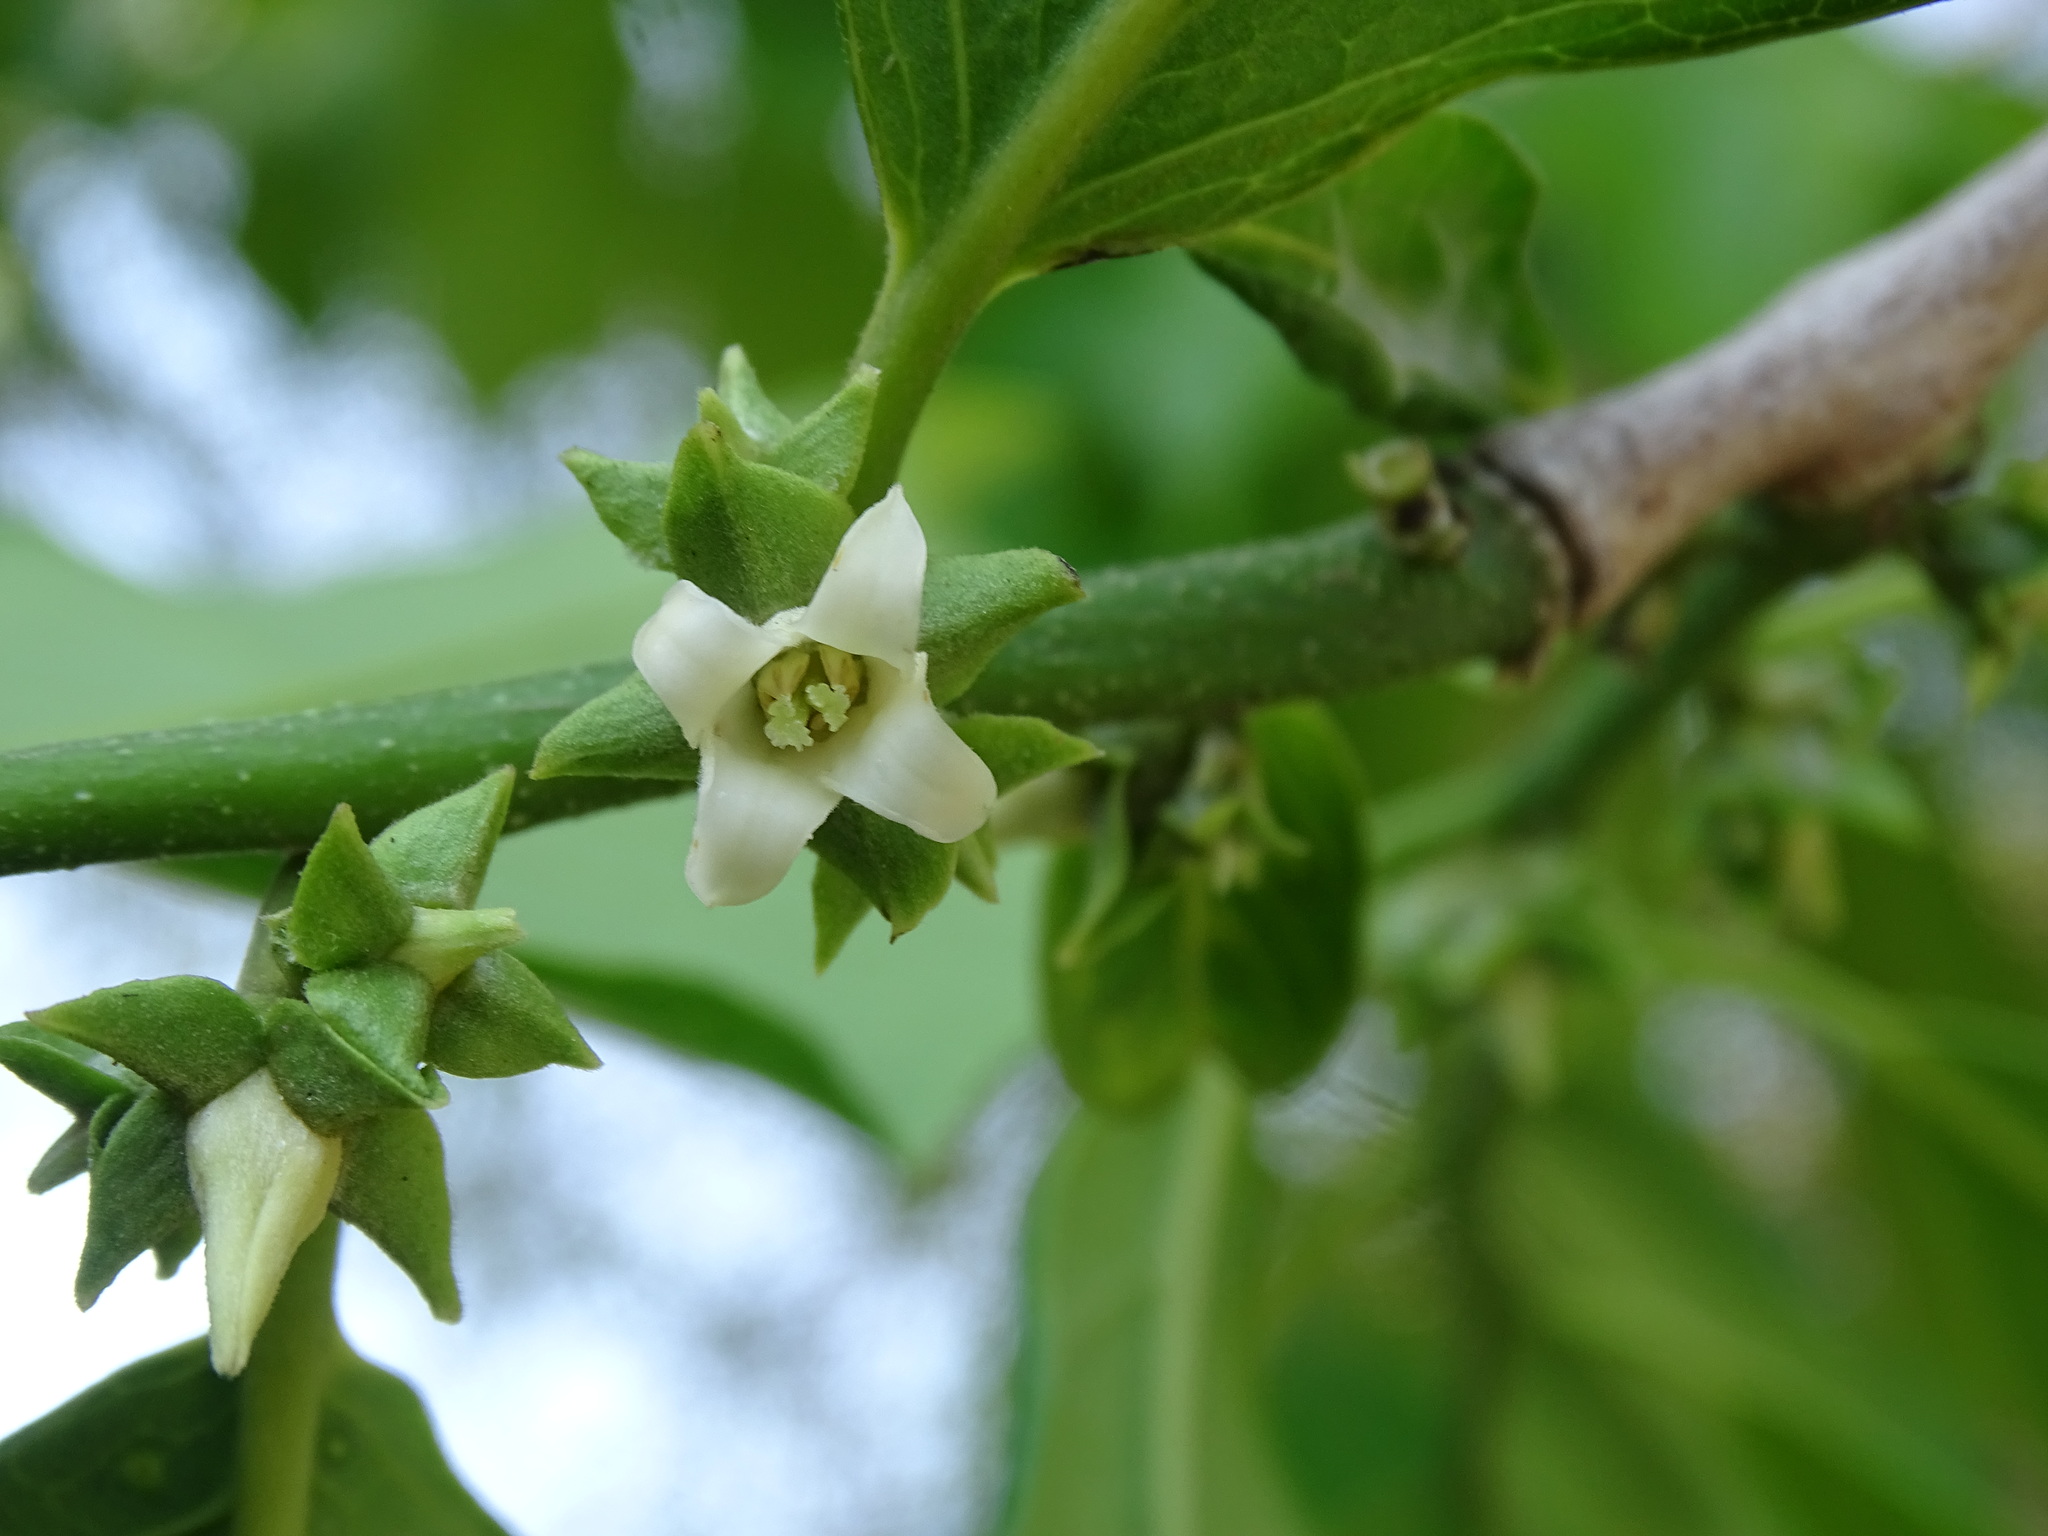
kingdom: Plantae
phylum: Tracheophyta
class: Magnoliopsida
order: Ericales
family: Ebenaceae
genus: Diospyros
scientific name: Diospyros yatesiana
